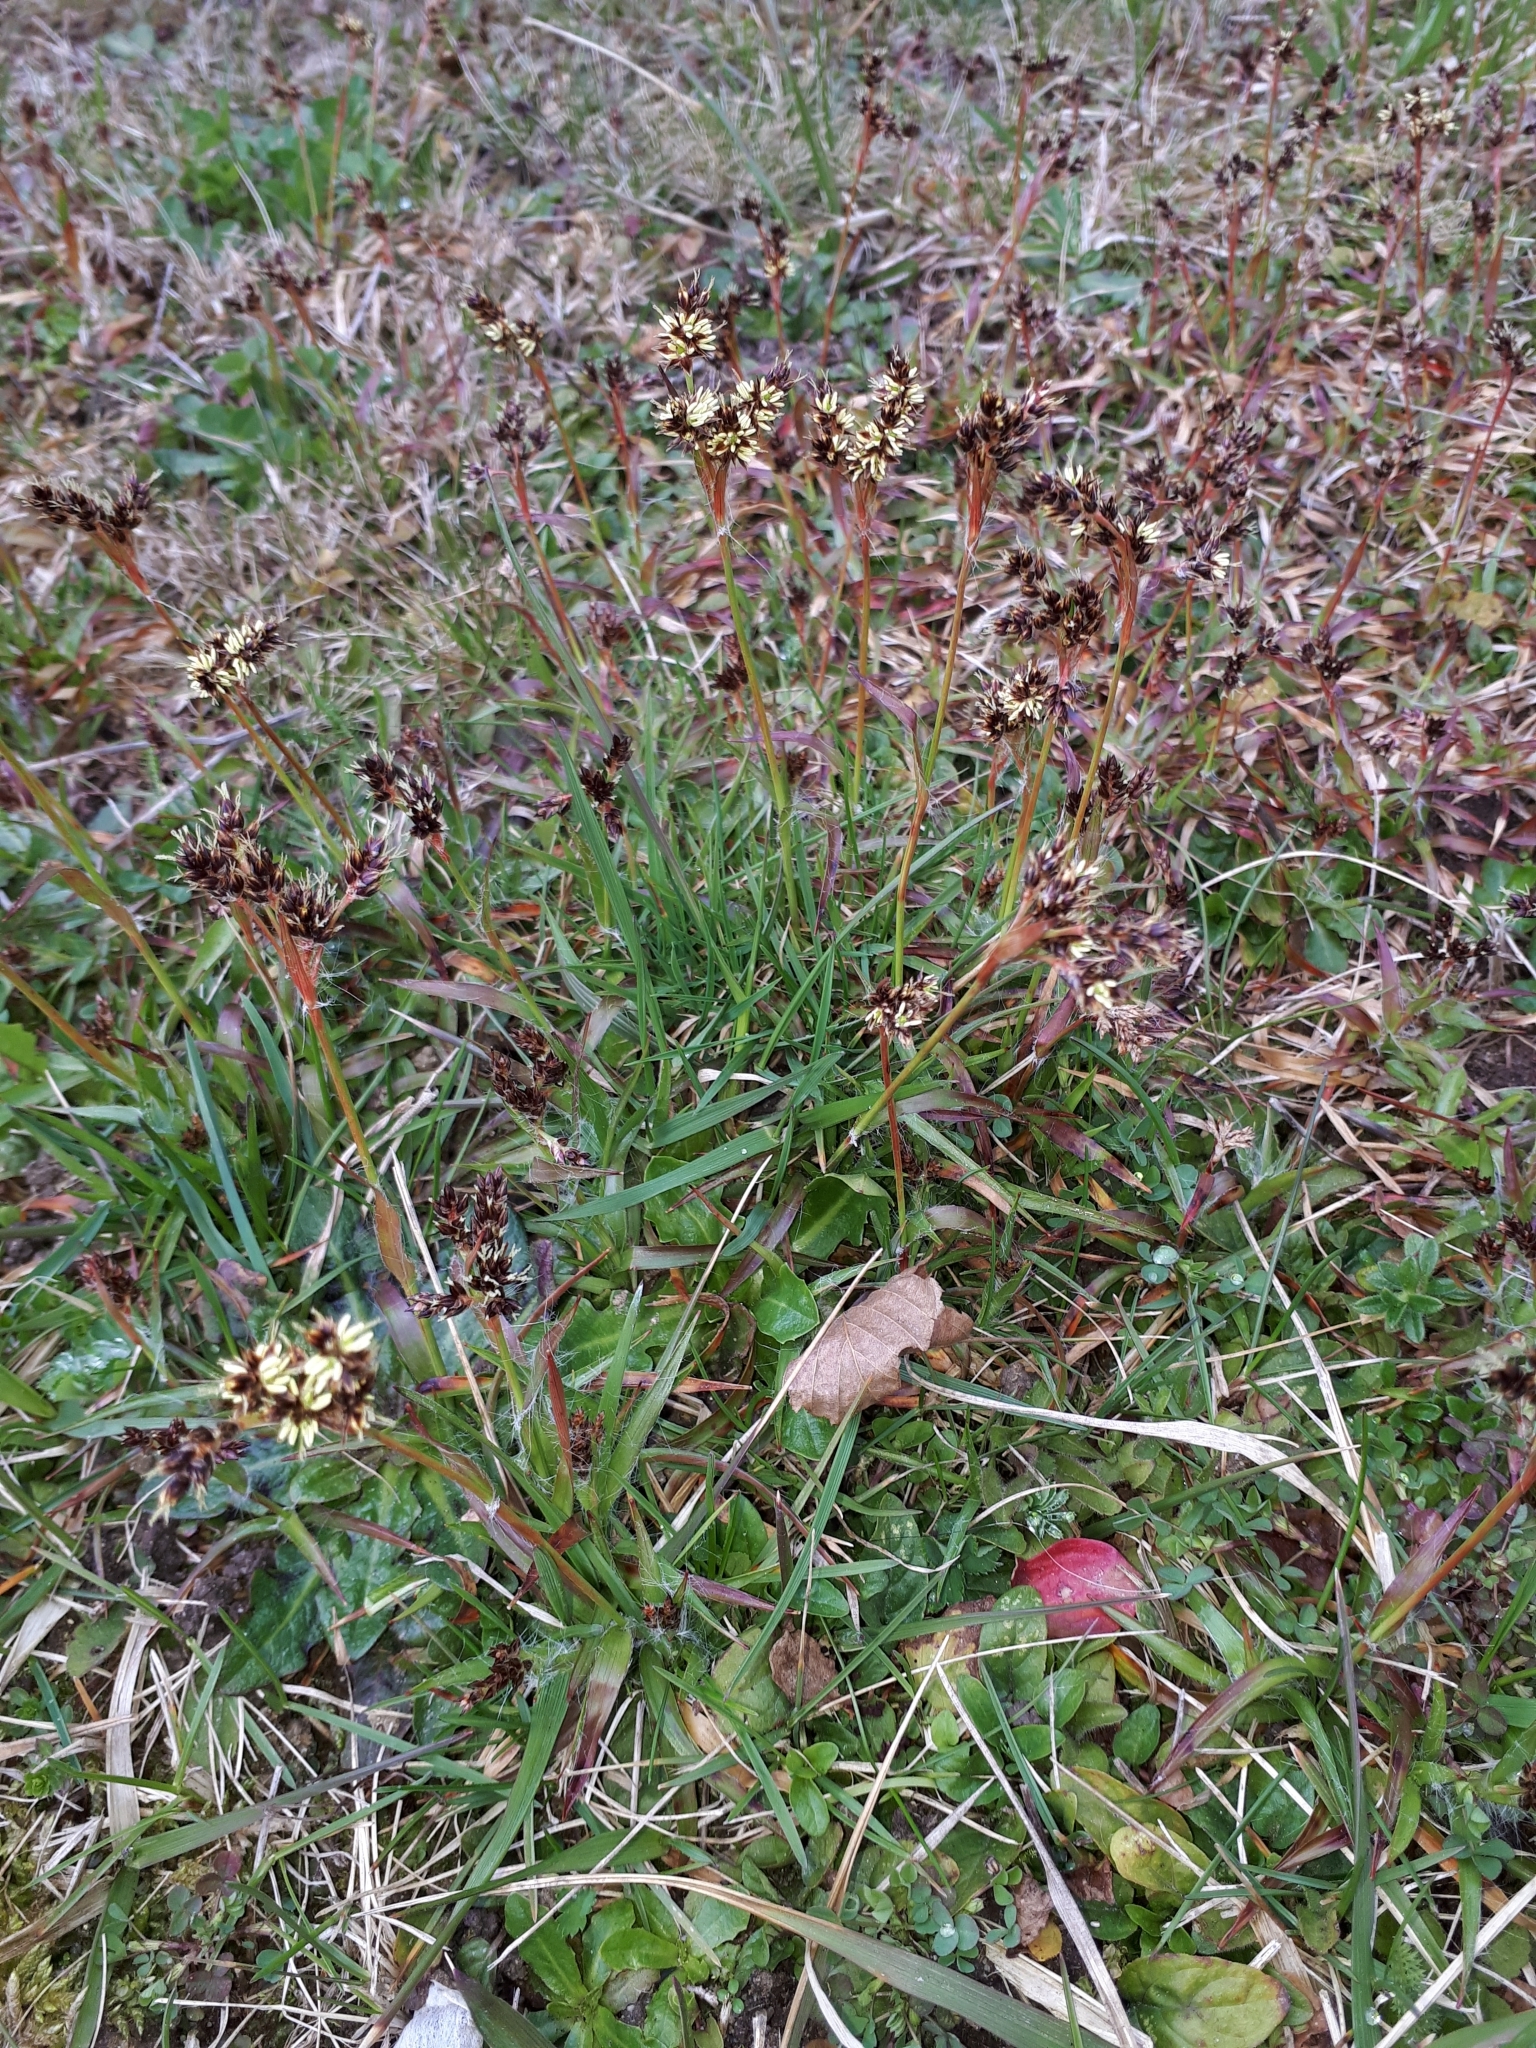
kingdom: Plantae
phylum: Tracheophyta
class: Liliopsida
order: Poales
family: Juncaceae
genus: Luzula
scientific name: Luzula campestris
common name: Field wood-rush
